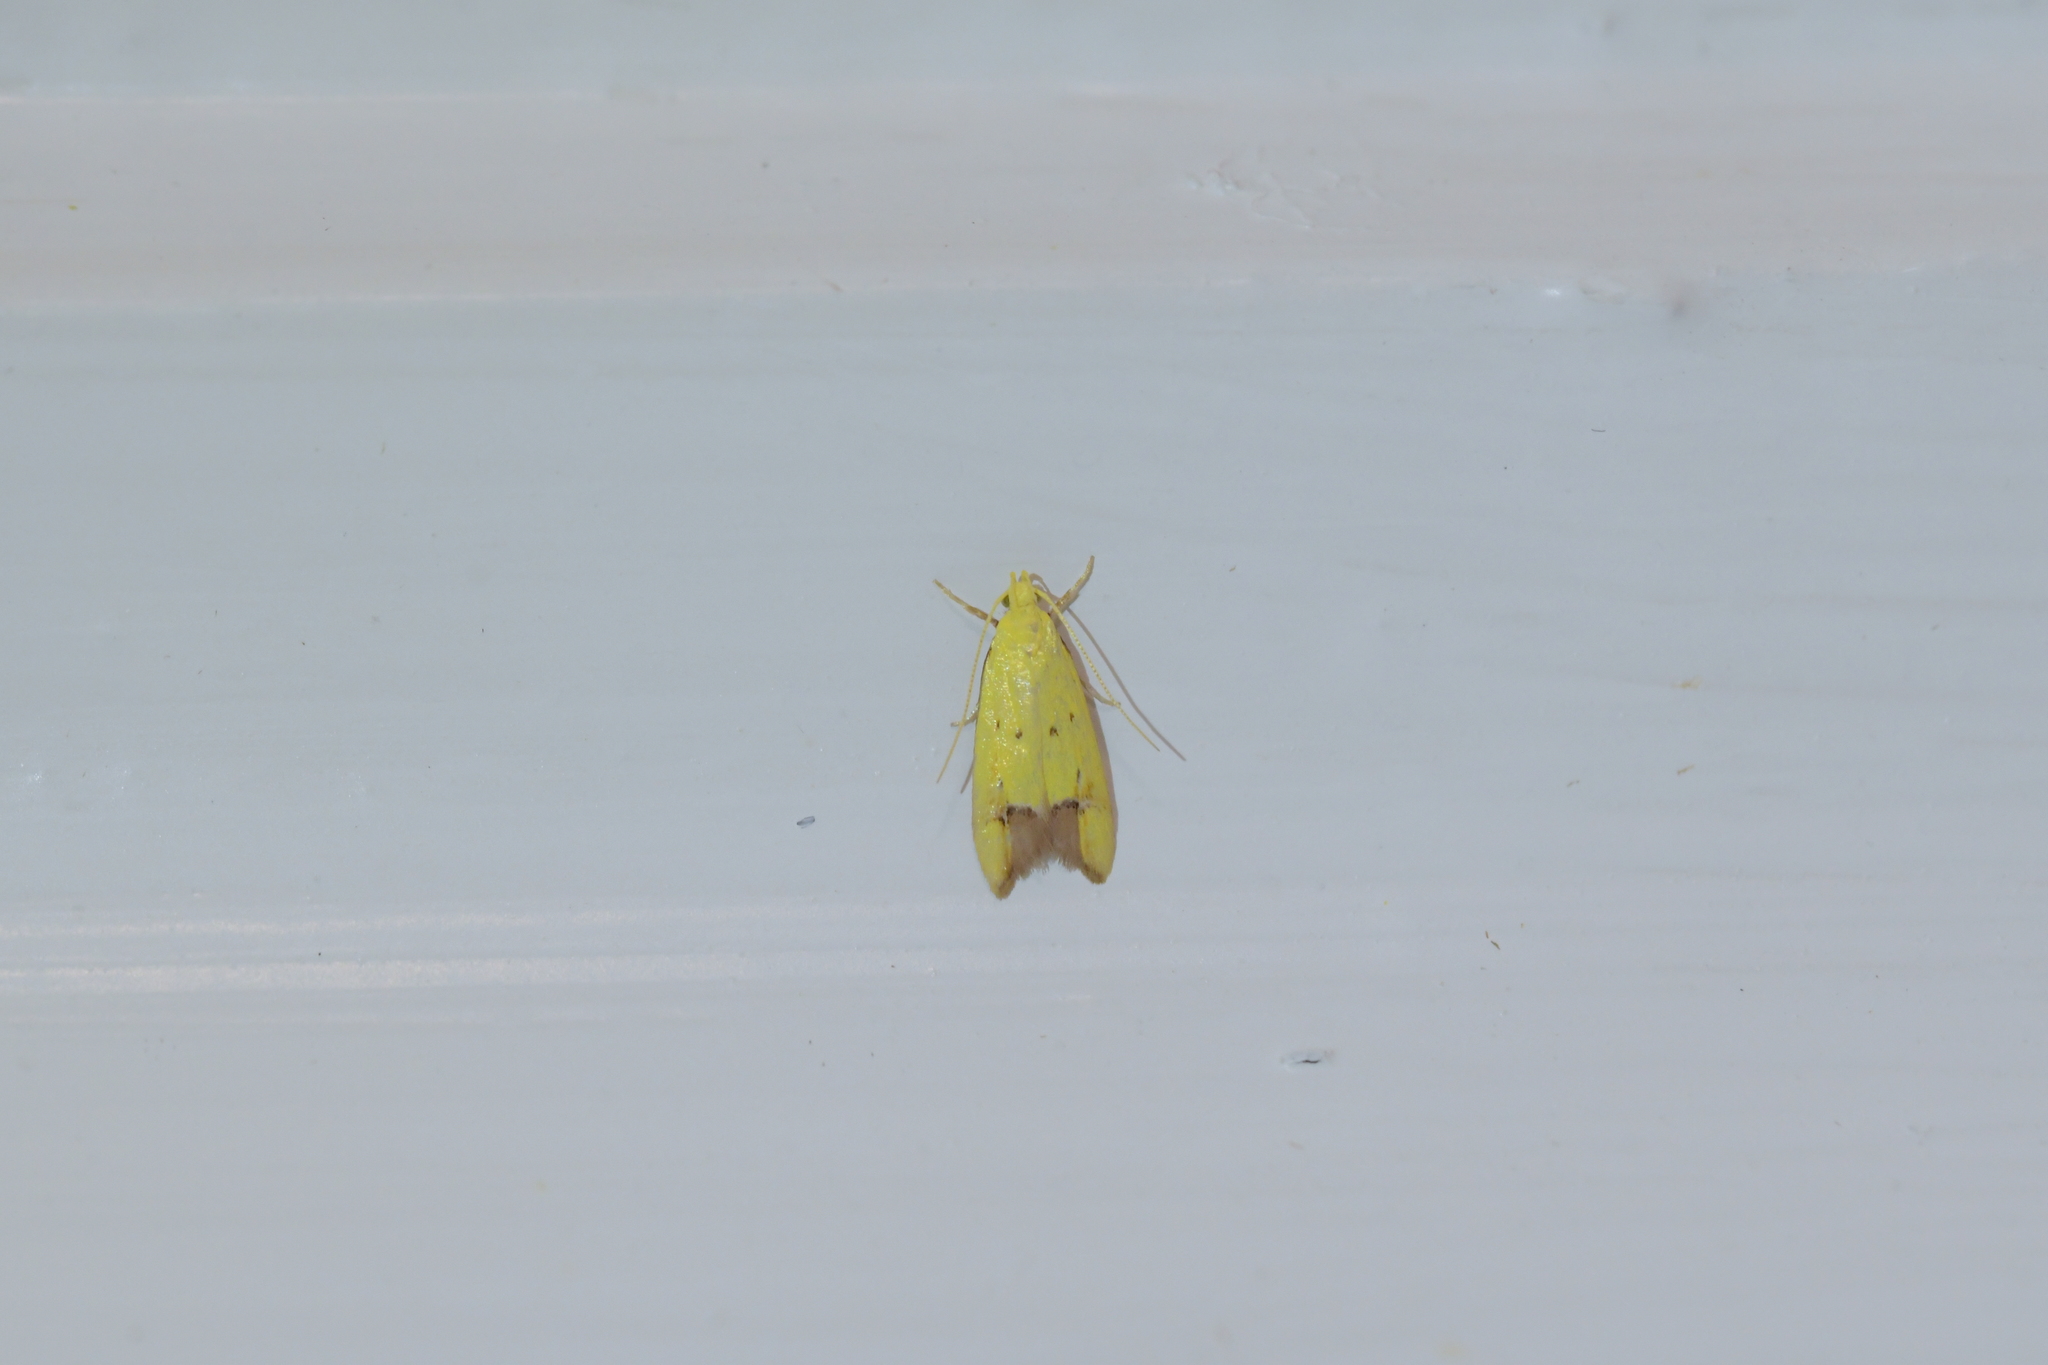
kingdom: Animalia
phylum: Arthropoda
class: Insecta
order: Lepidoptera
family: Oecophoridae
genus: Gymnobathra
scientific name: Gymnobathra flavidella
